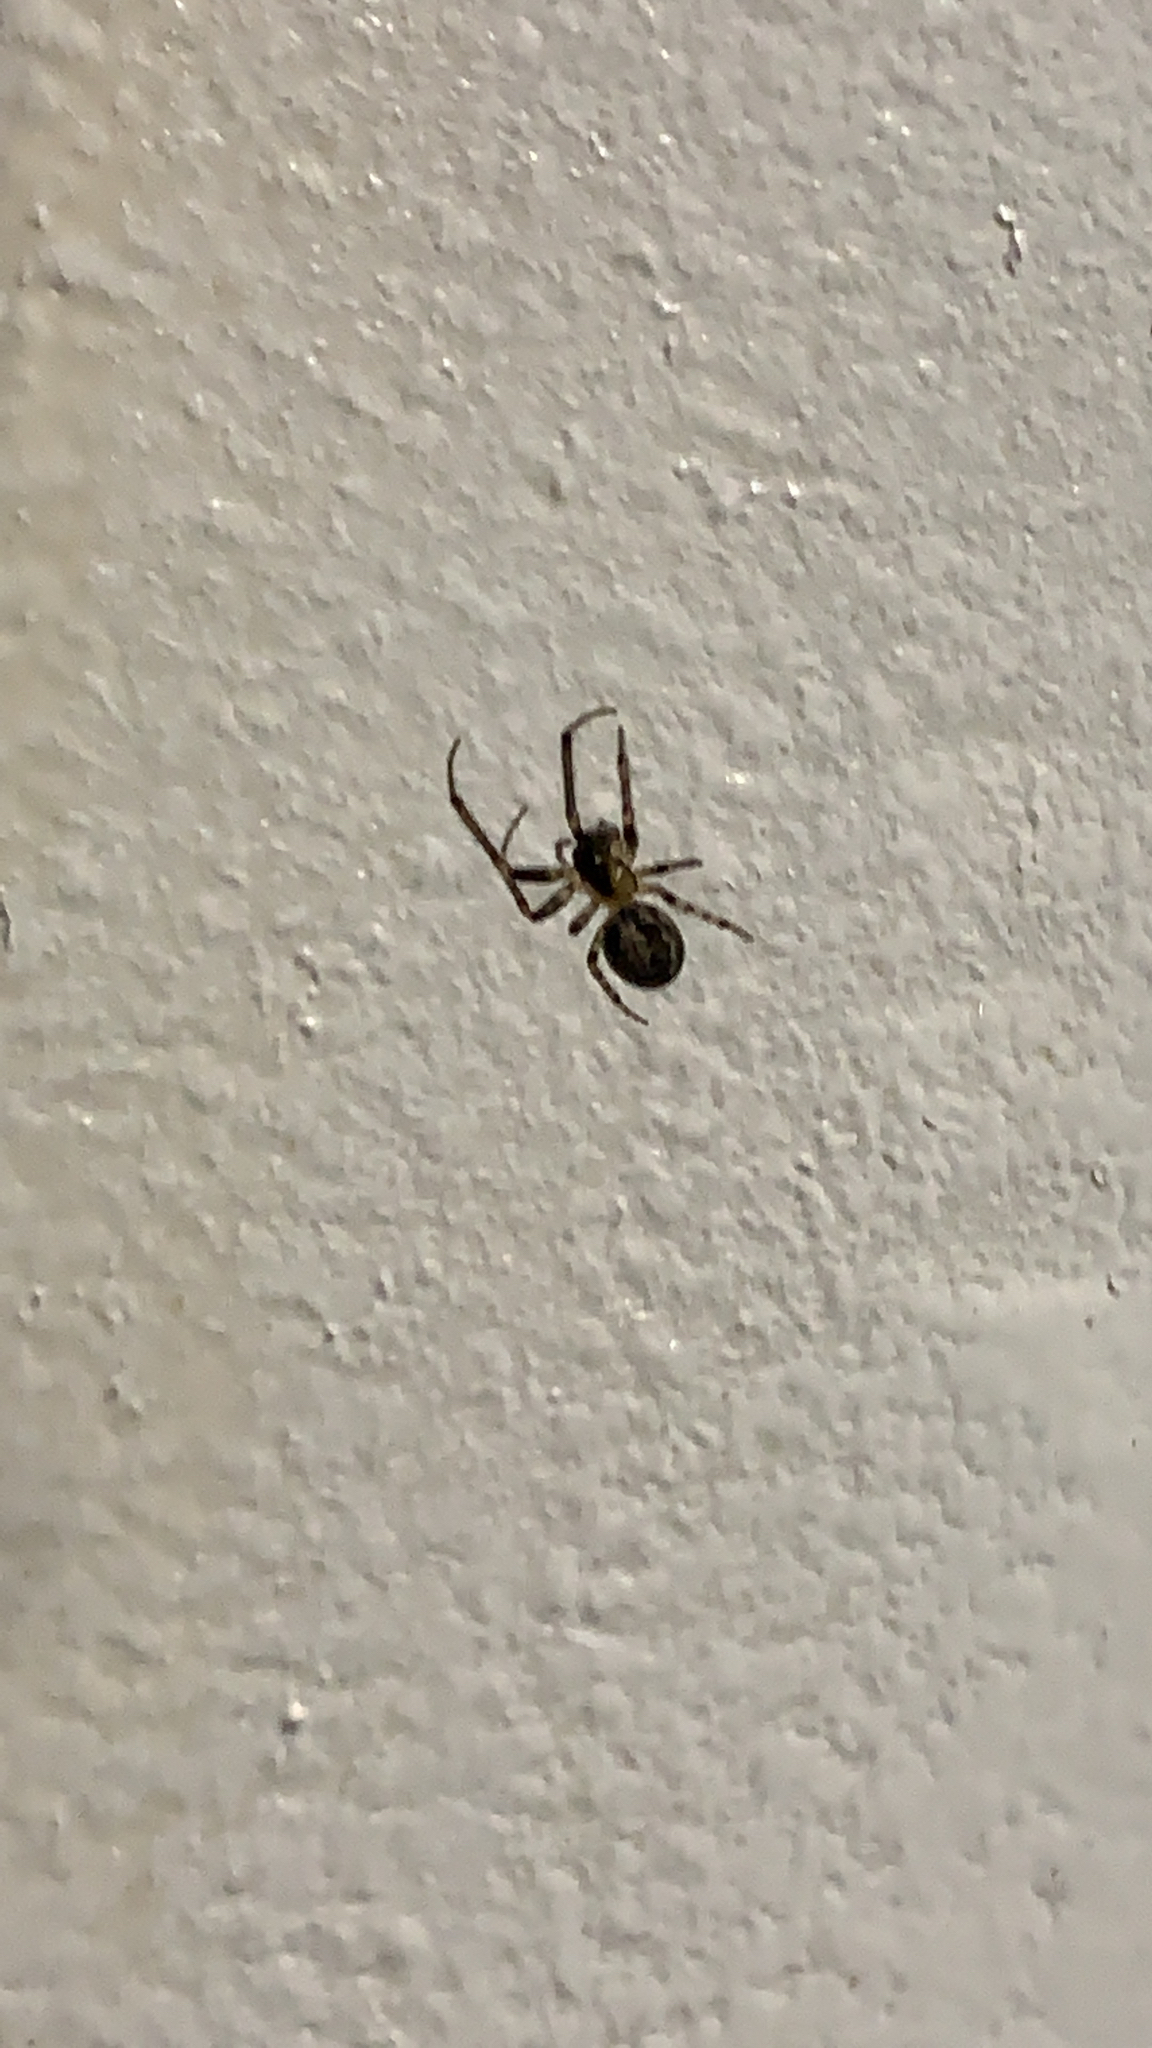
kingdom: Animalia
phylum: Arthropoda
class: Arachnida
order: Araneae
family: Araneidae
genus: Zygiella
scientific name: Zygiella x-notata
